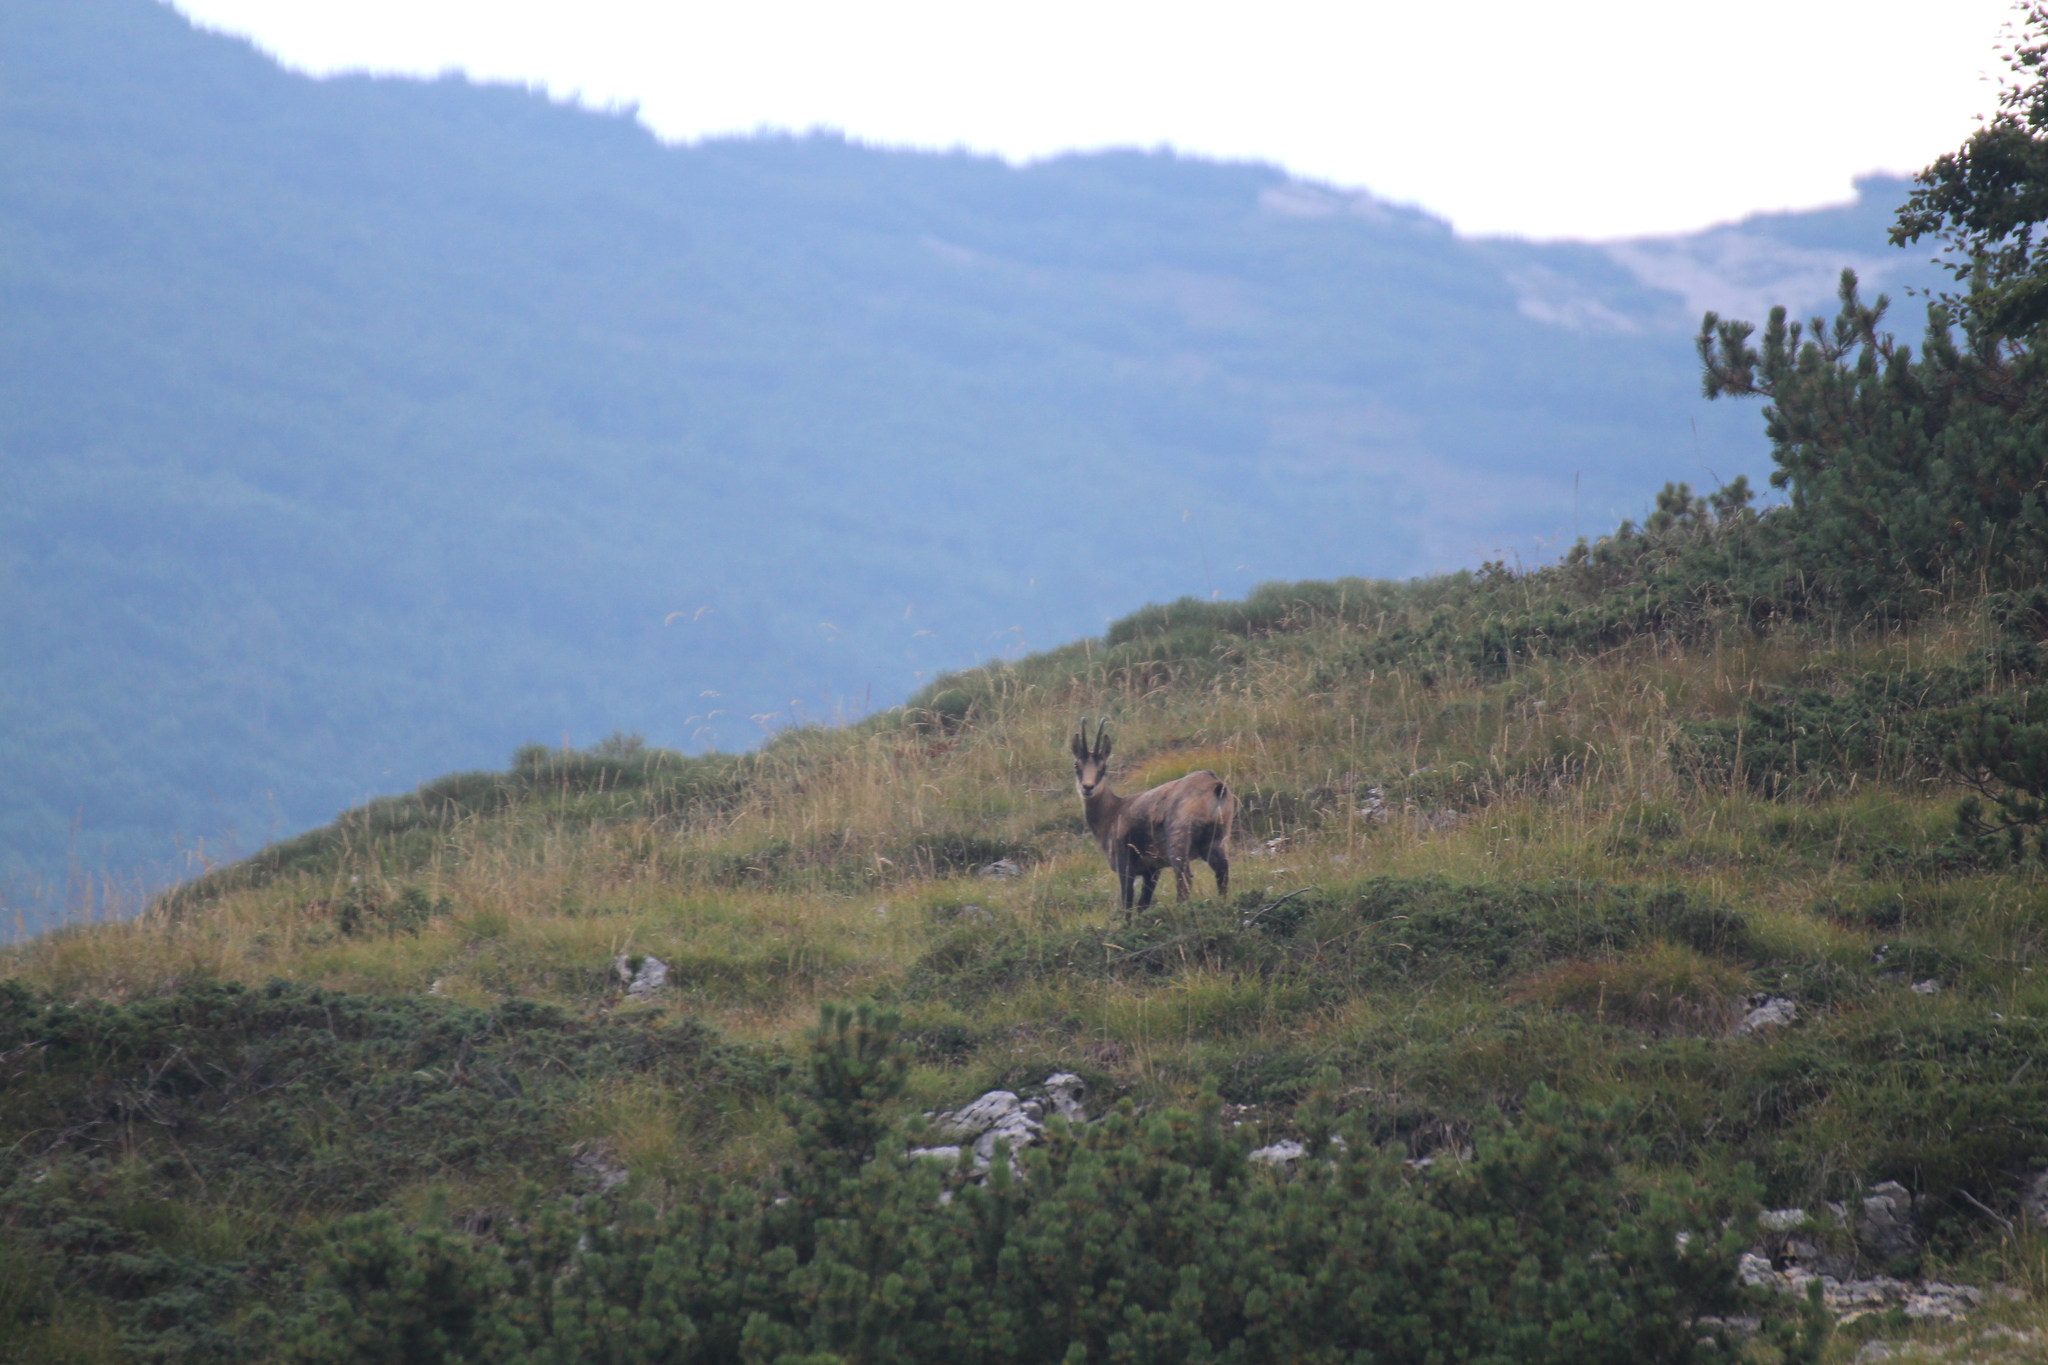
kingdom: Animalia
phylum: Chordata
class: Mammalia
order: Artiodactyla
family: Bovidae
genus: Rupicapra
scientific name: Rupicapra rupicapra
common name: Chamois
